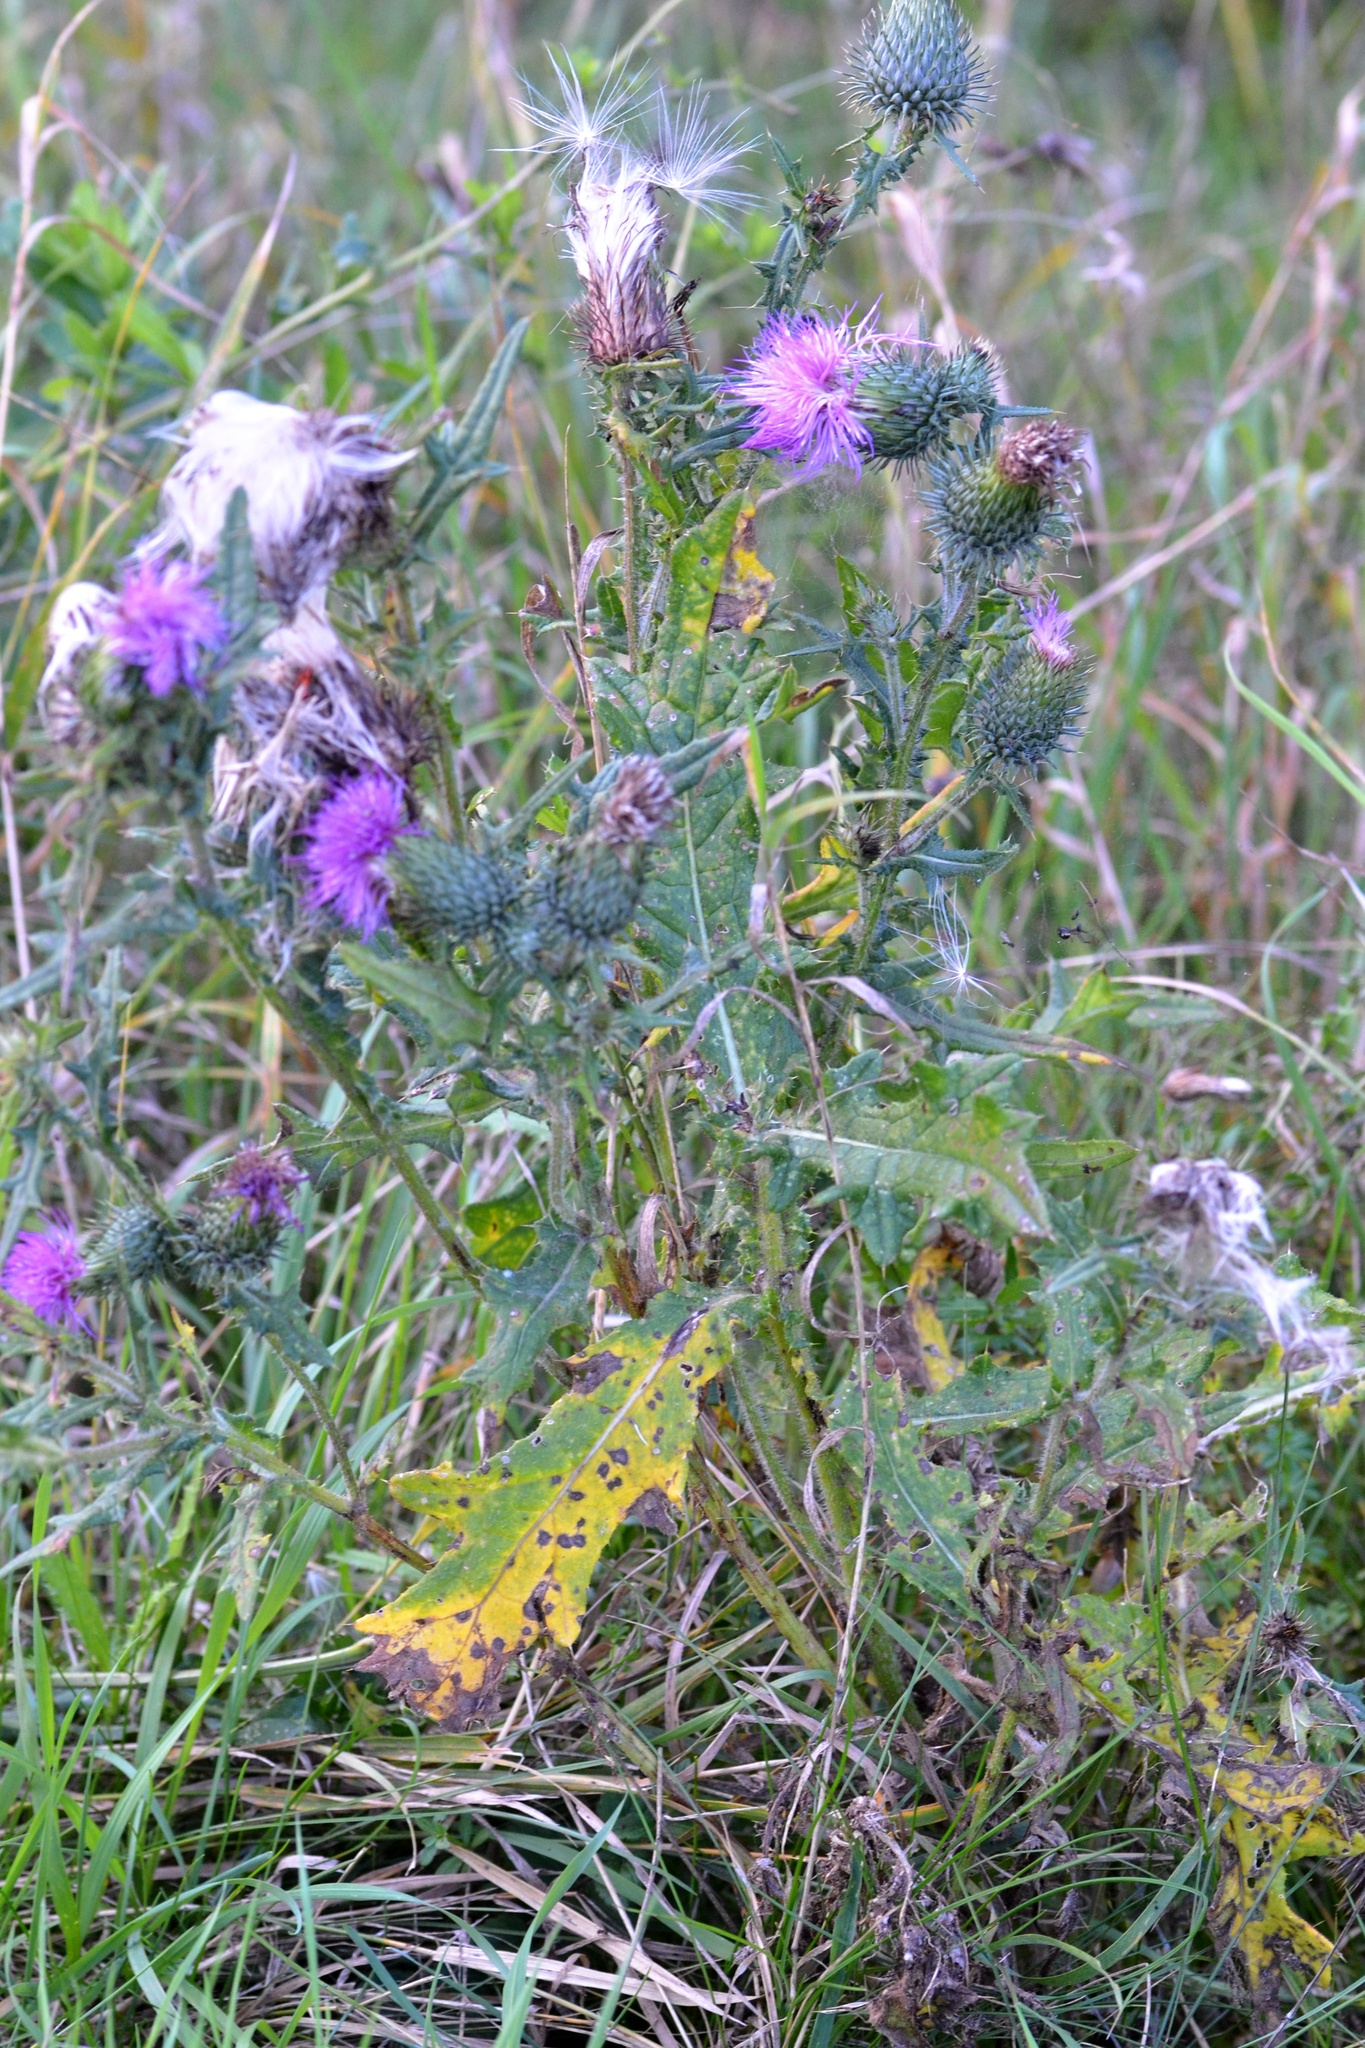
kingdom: Plantae
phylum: Tracheophyta
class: Magnoliopsida
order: Asterales
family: Asteraceae
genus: Cirsium
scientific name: Cirsium vulgare
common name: Bull thistle
